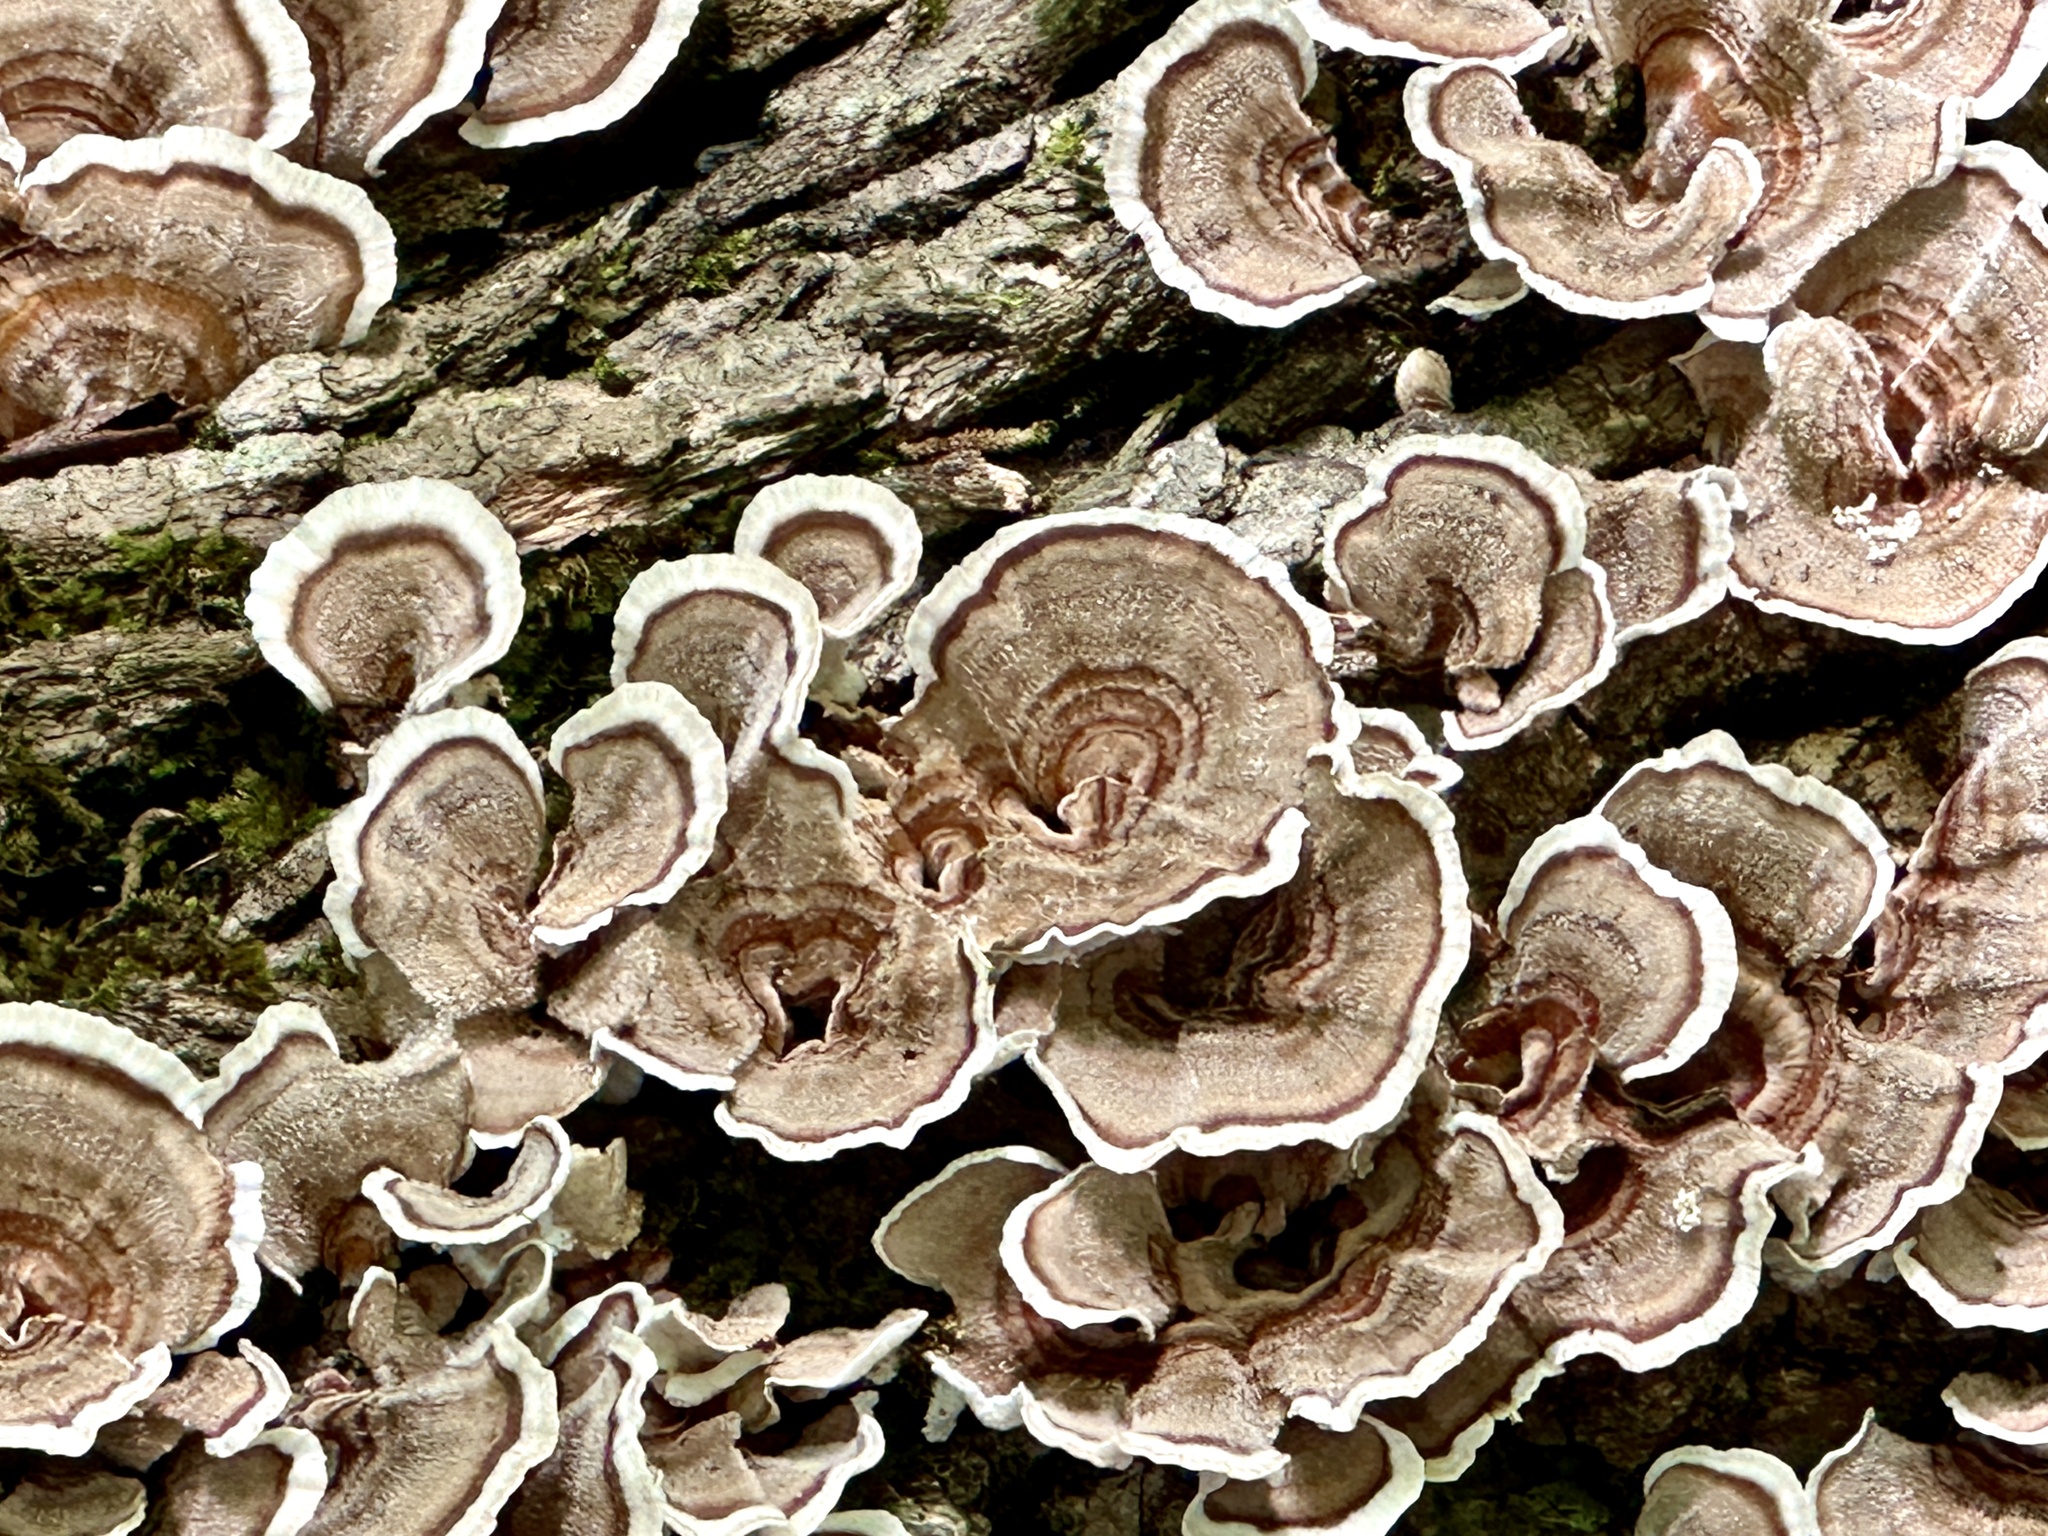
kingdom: Fungi
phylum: Basidiomycota
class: Agaricomycetes
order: Polyporales
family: Polyporaceae
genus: Trametes
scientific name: Trametes versicolor
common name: Turkeytail
